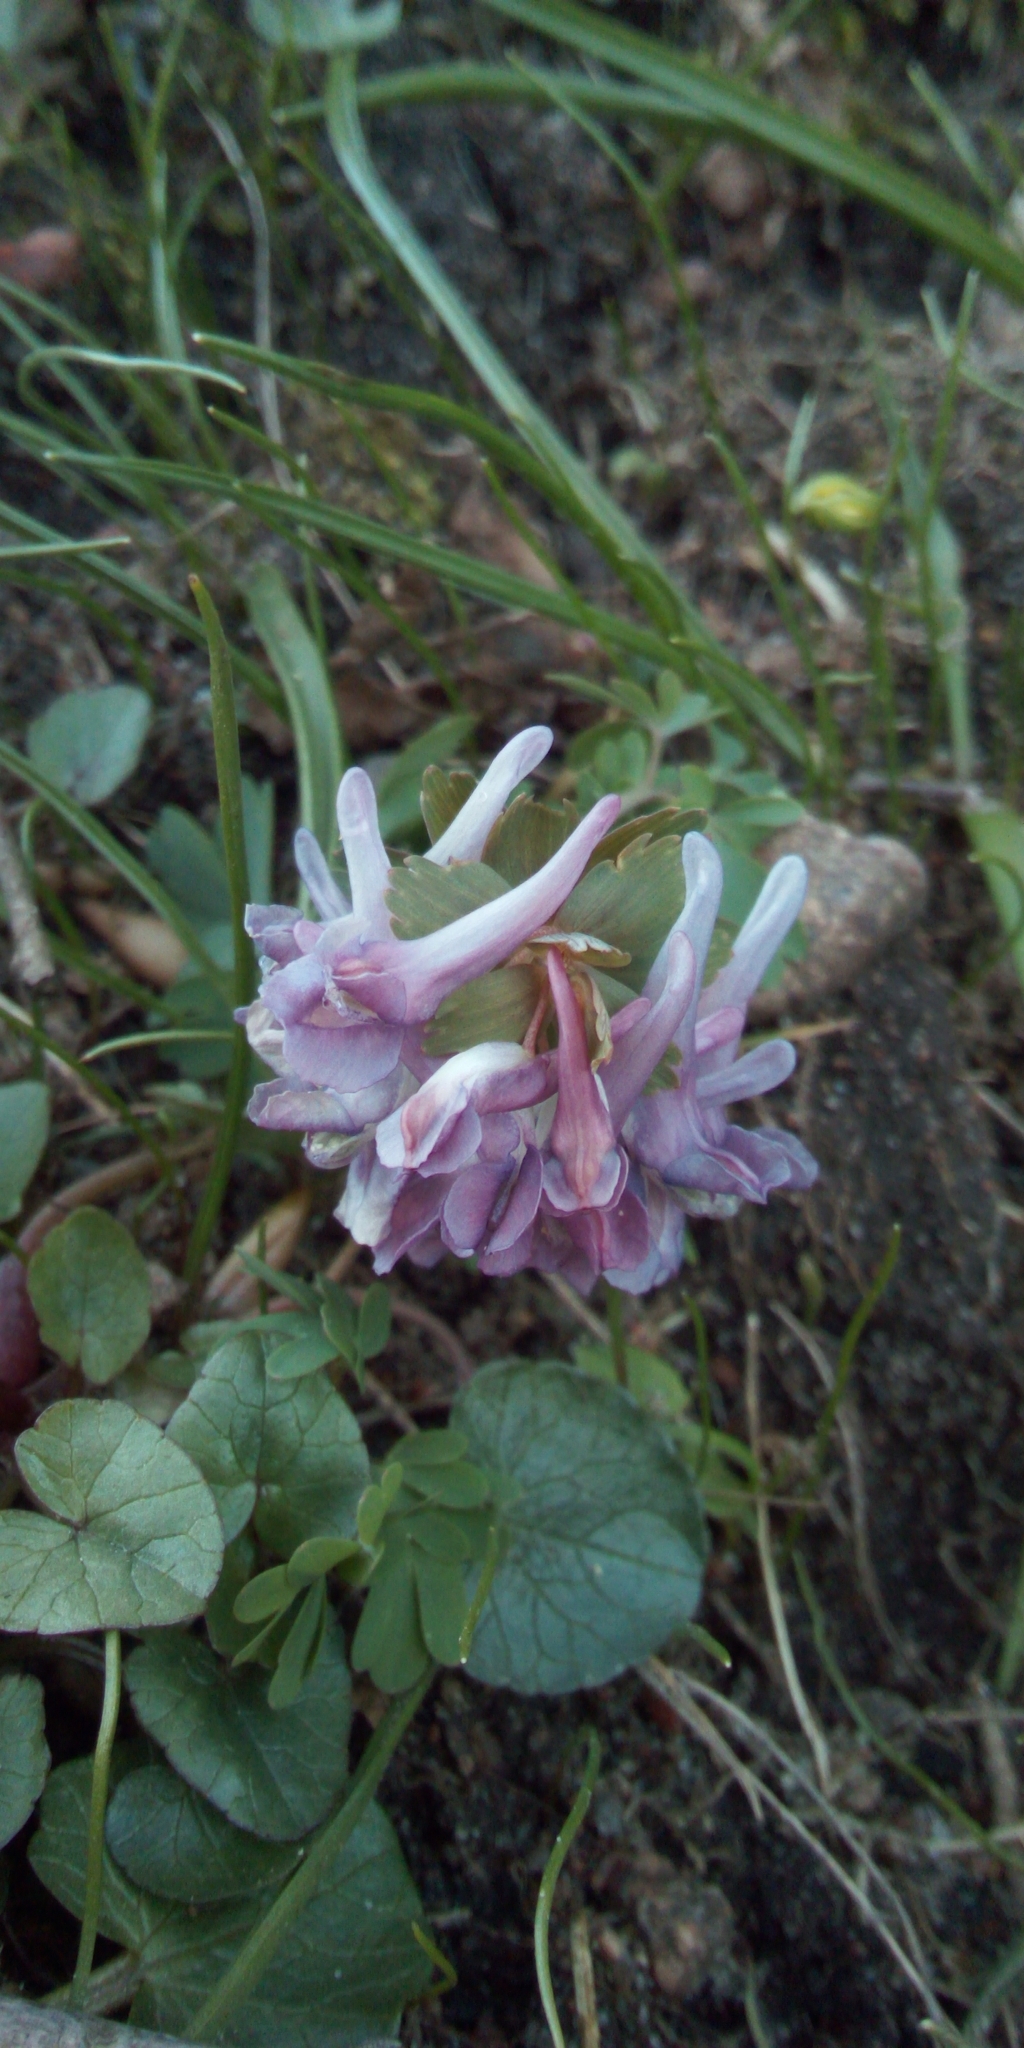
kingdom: Plantae
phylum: Tracheophyta
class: Magnoliopsida
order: Ranunculales
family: Papaveraceae
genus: Corydalis
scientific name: Corydalis solida
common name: Bird-in-a-bush
